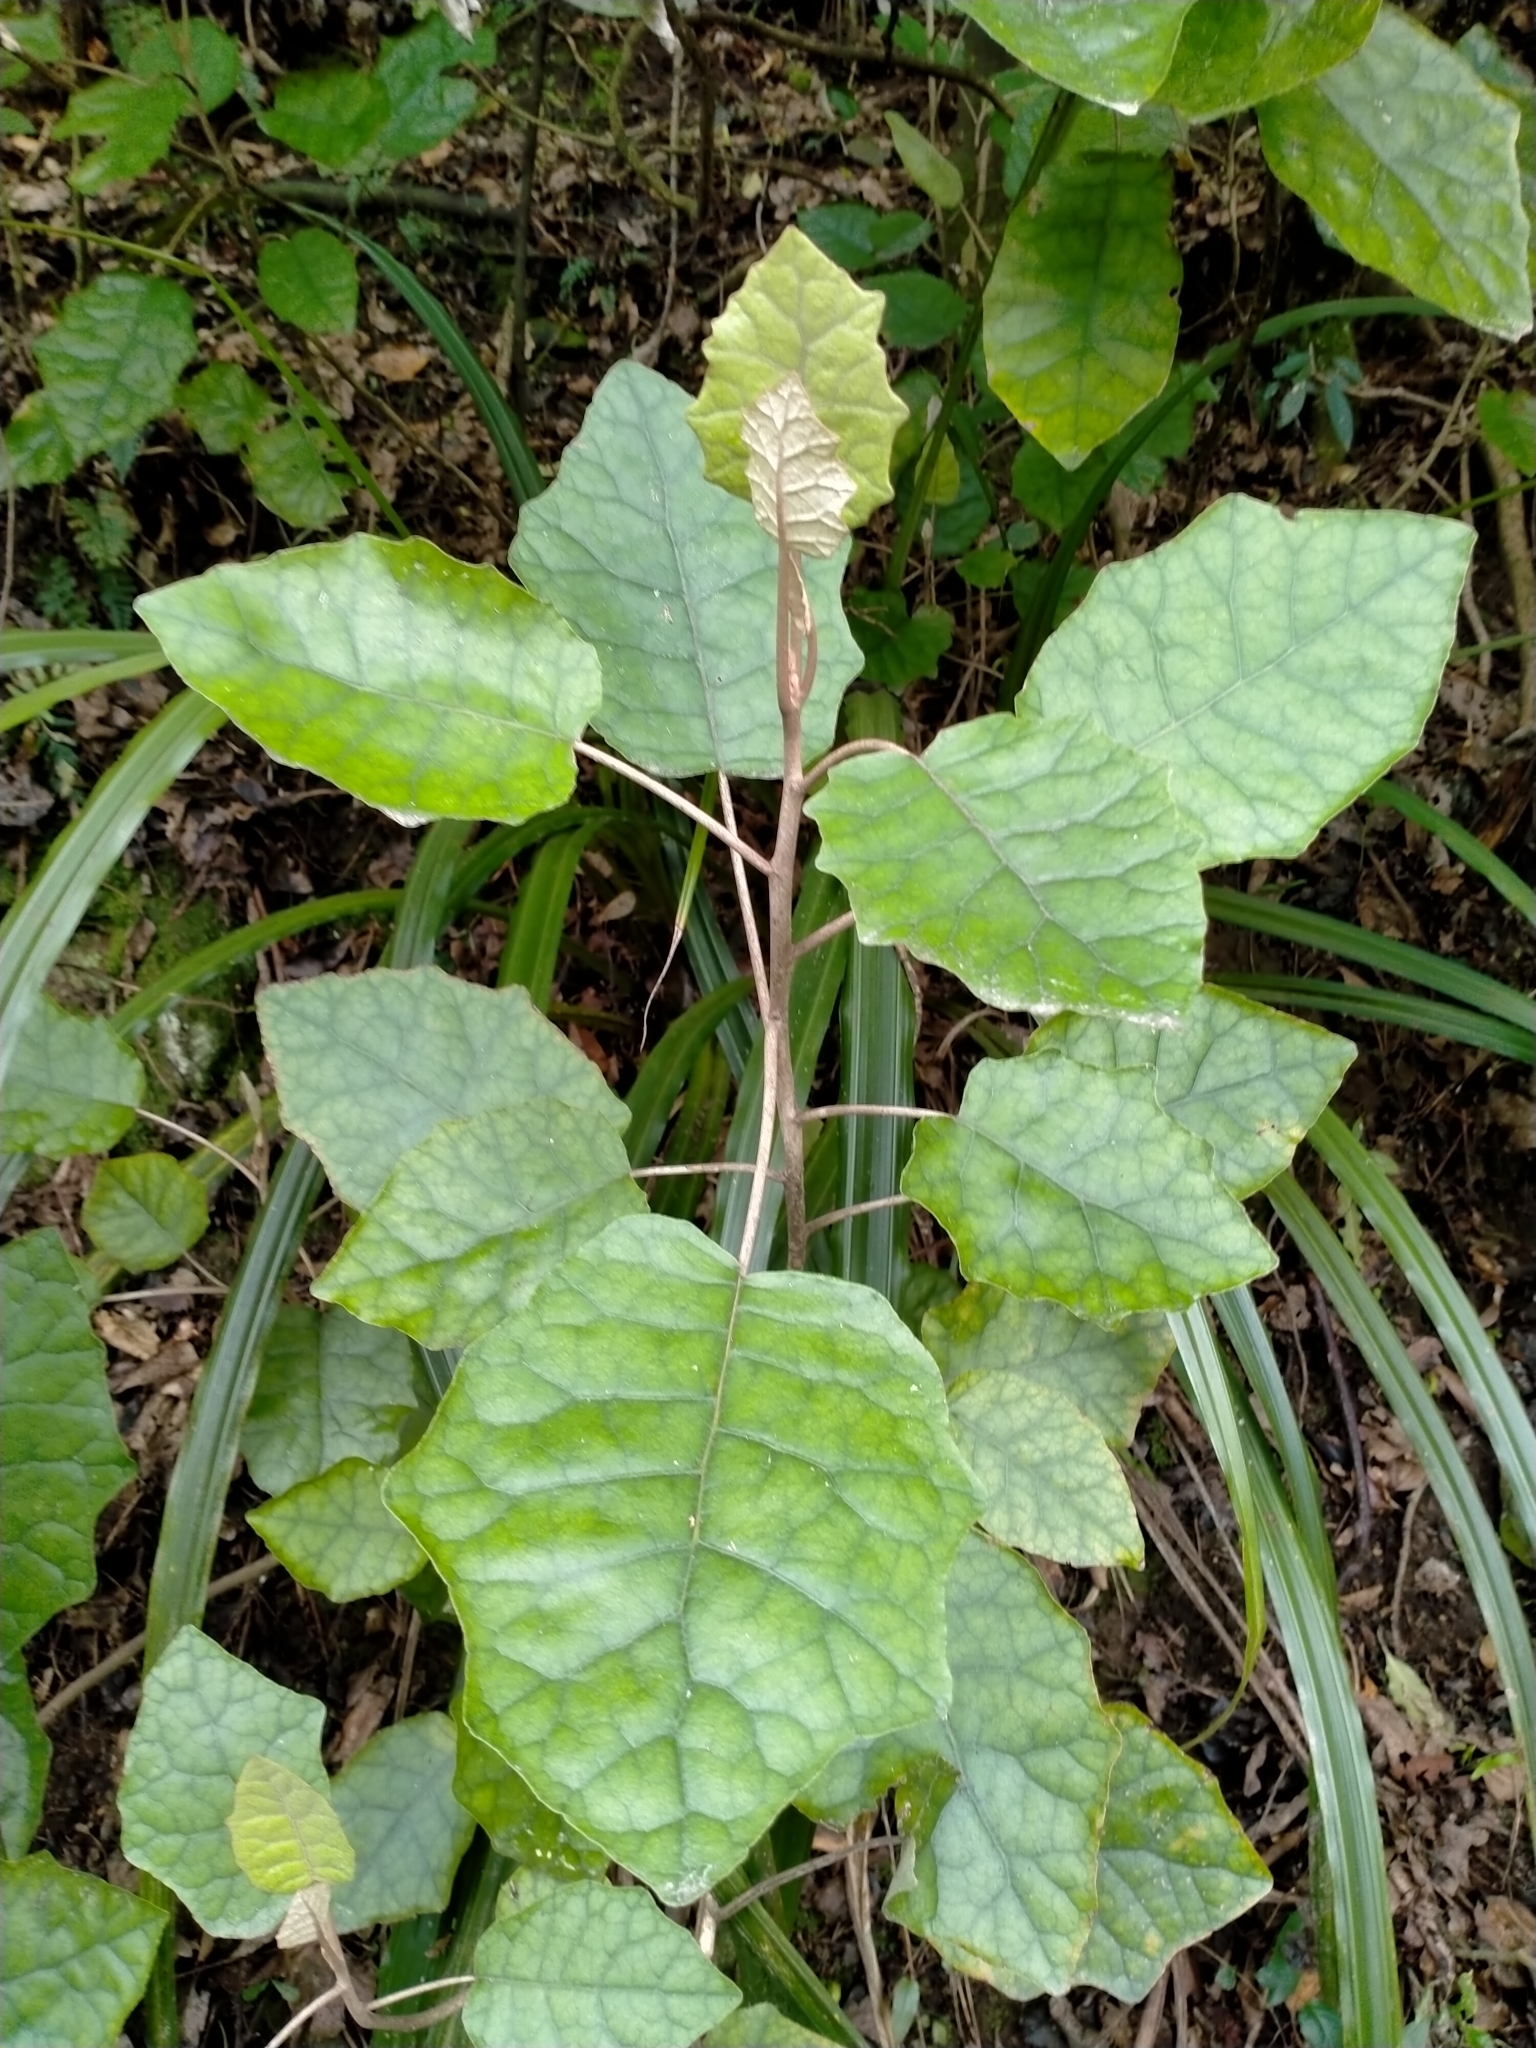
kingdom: Plantae
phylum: Tracheophyta
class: Magnoliopsida
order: Asterales
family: Asteraceae
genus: Brachyglottis
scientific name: Brachyglottis repanda
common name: Hedge ragwort
